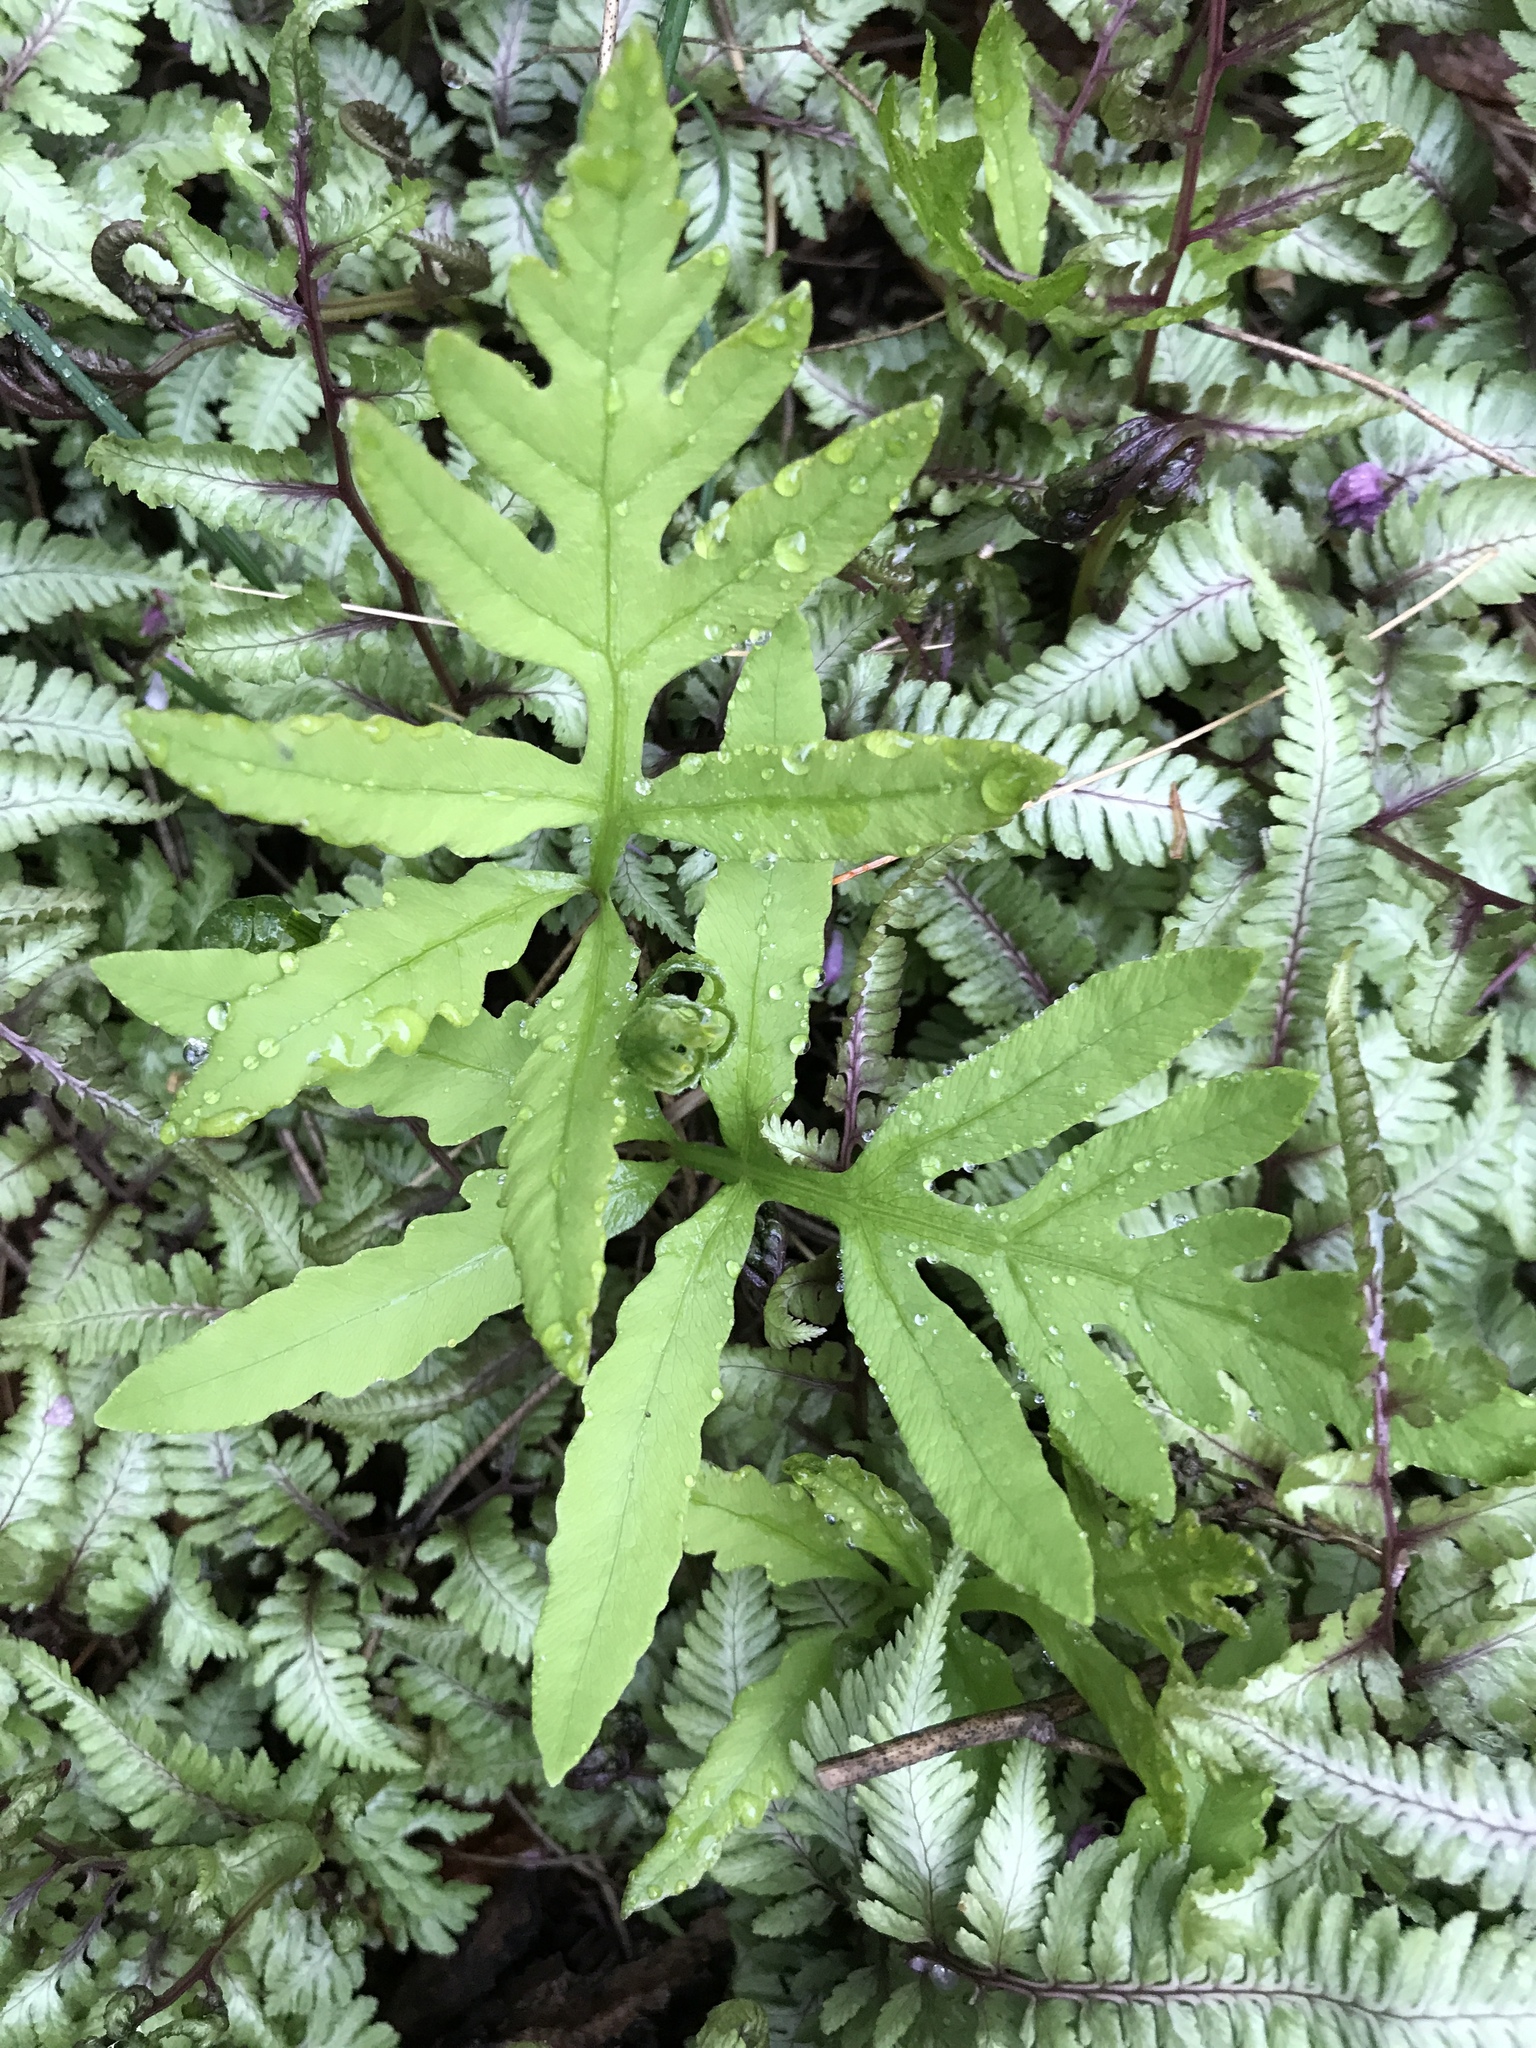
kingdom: Plantae
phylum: Tracheophyta
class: Polypodiopsida
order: Polypodiales
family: Onocleaceae
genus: Onoclea
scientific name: Onoclea sensibilis
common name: Sensitive fern
